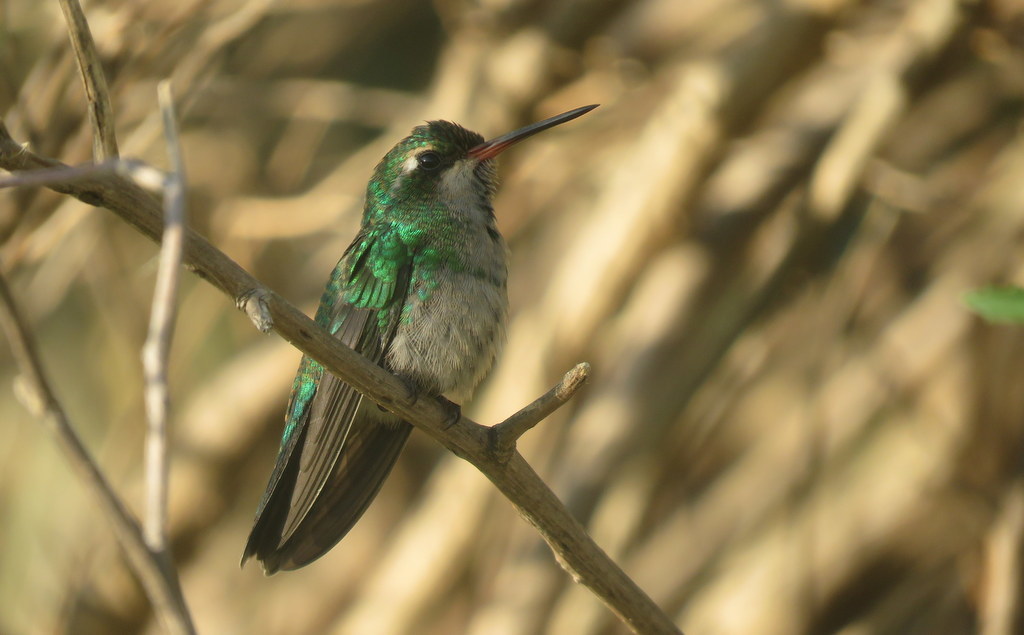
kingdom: Animalia
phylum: Chordata
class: Aves
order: Apodiformes
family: Trochilidae
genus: Chlorostilbon
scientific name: Chlorostilbon lucidus
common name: Glittering-bellied emerald
